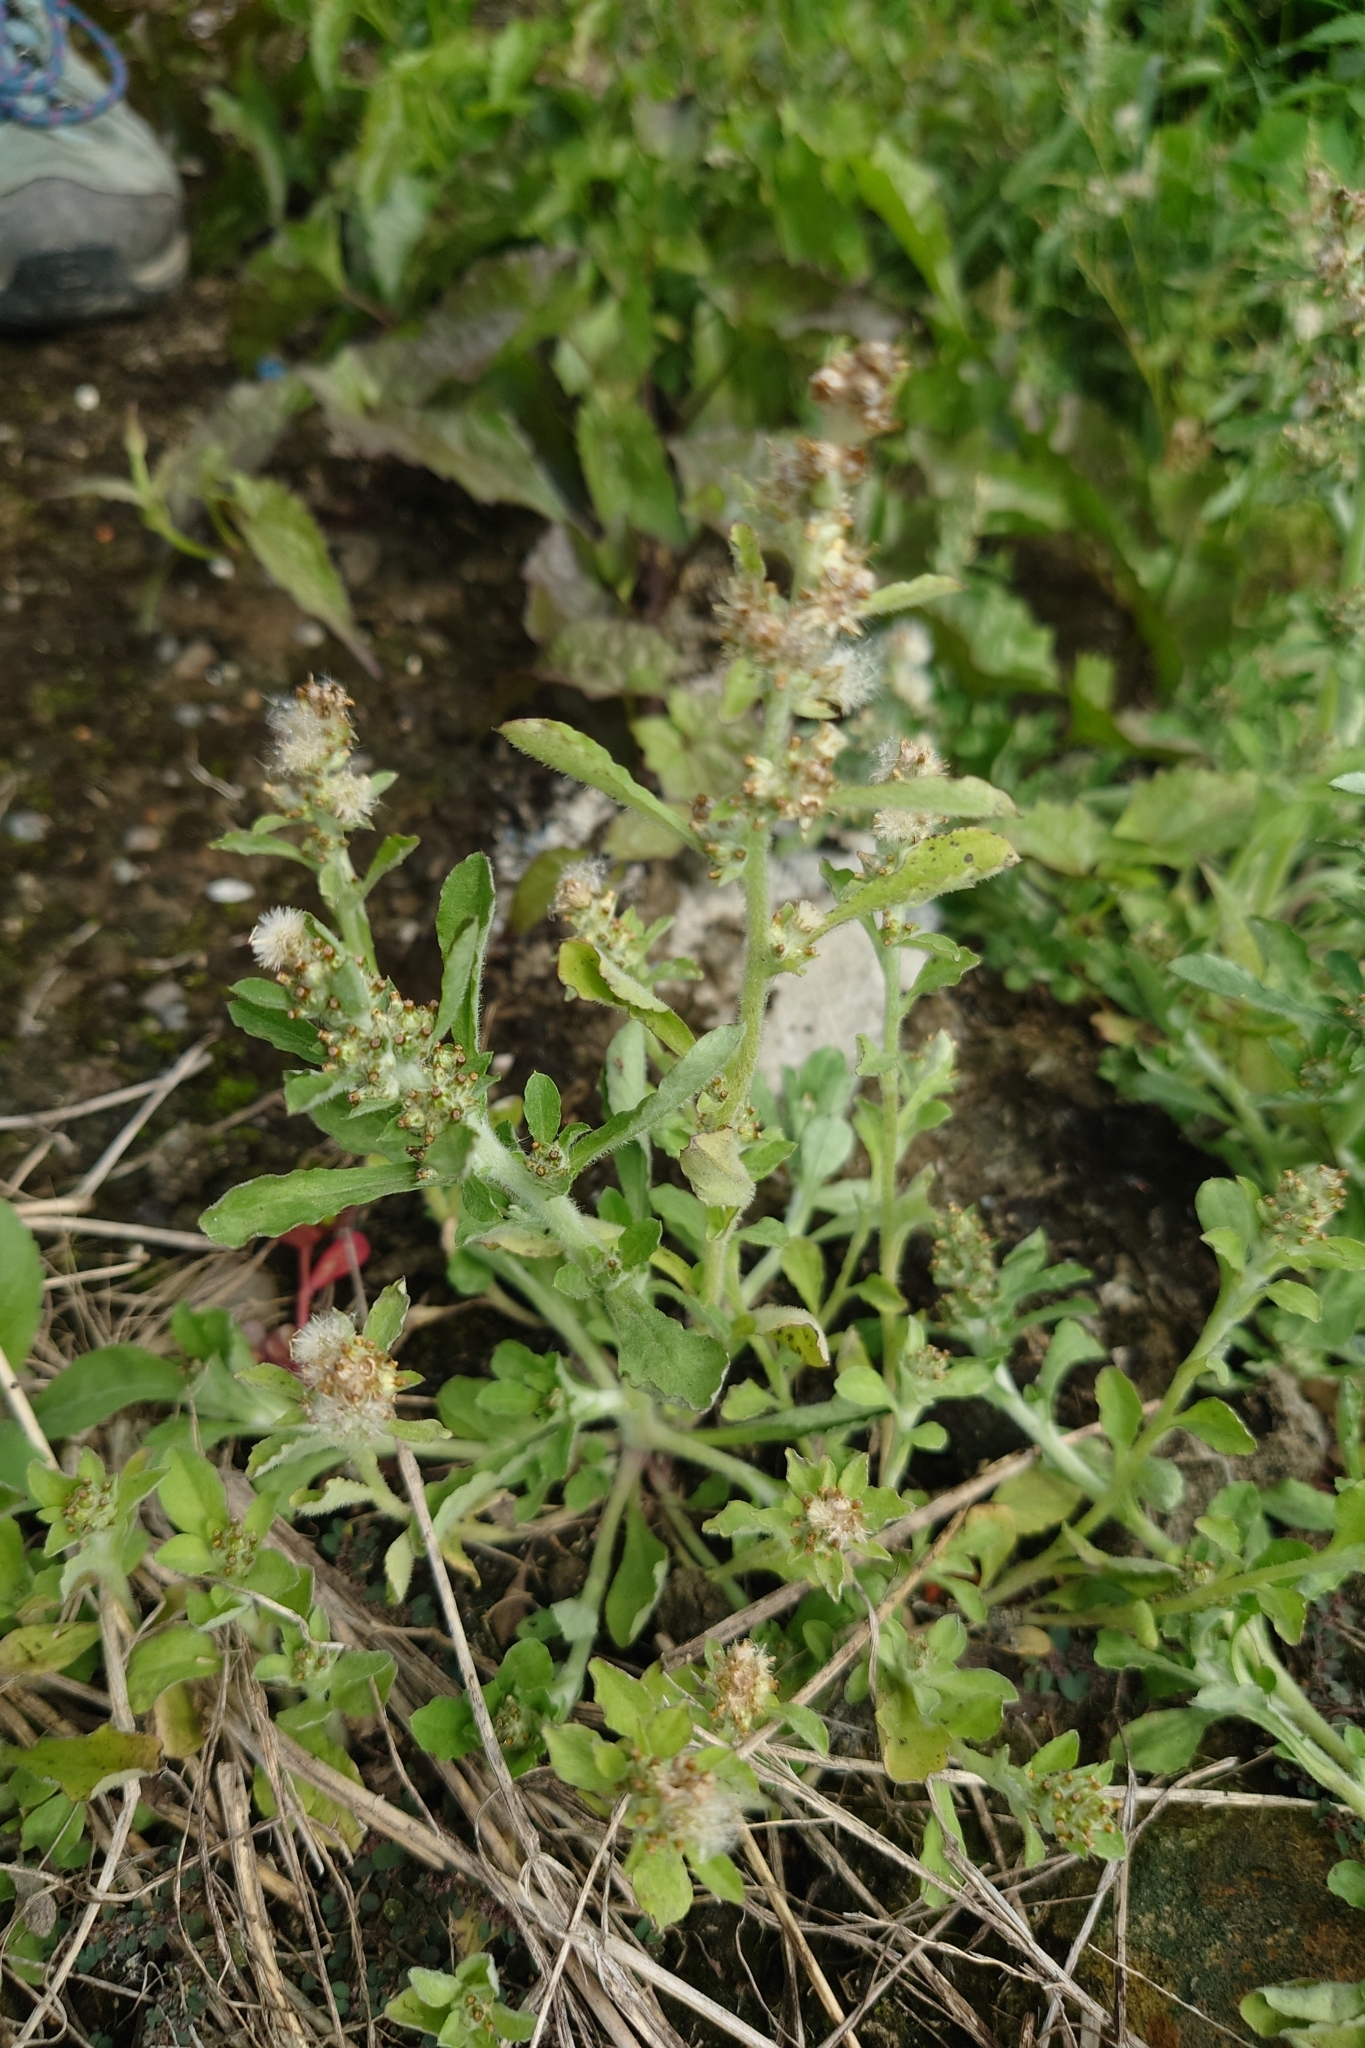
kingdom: Plantae
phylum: Tracheophyta
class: Magnoliopsida
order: Asterales
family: Asteraceae
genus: Gamochaeta
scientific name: Gamochaeta pensylvanica
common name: Pennsylvania everlasting
